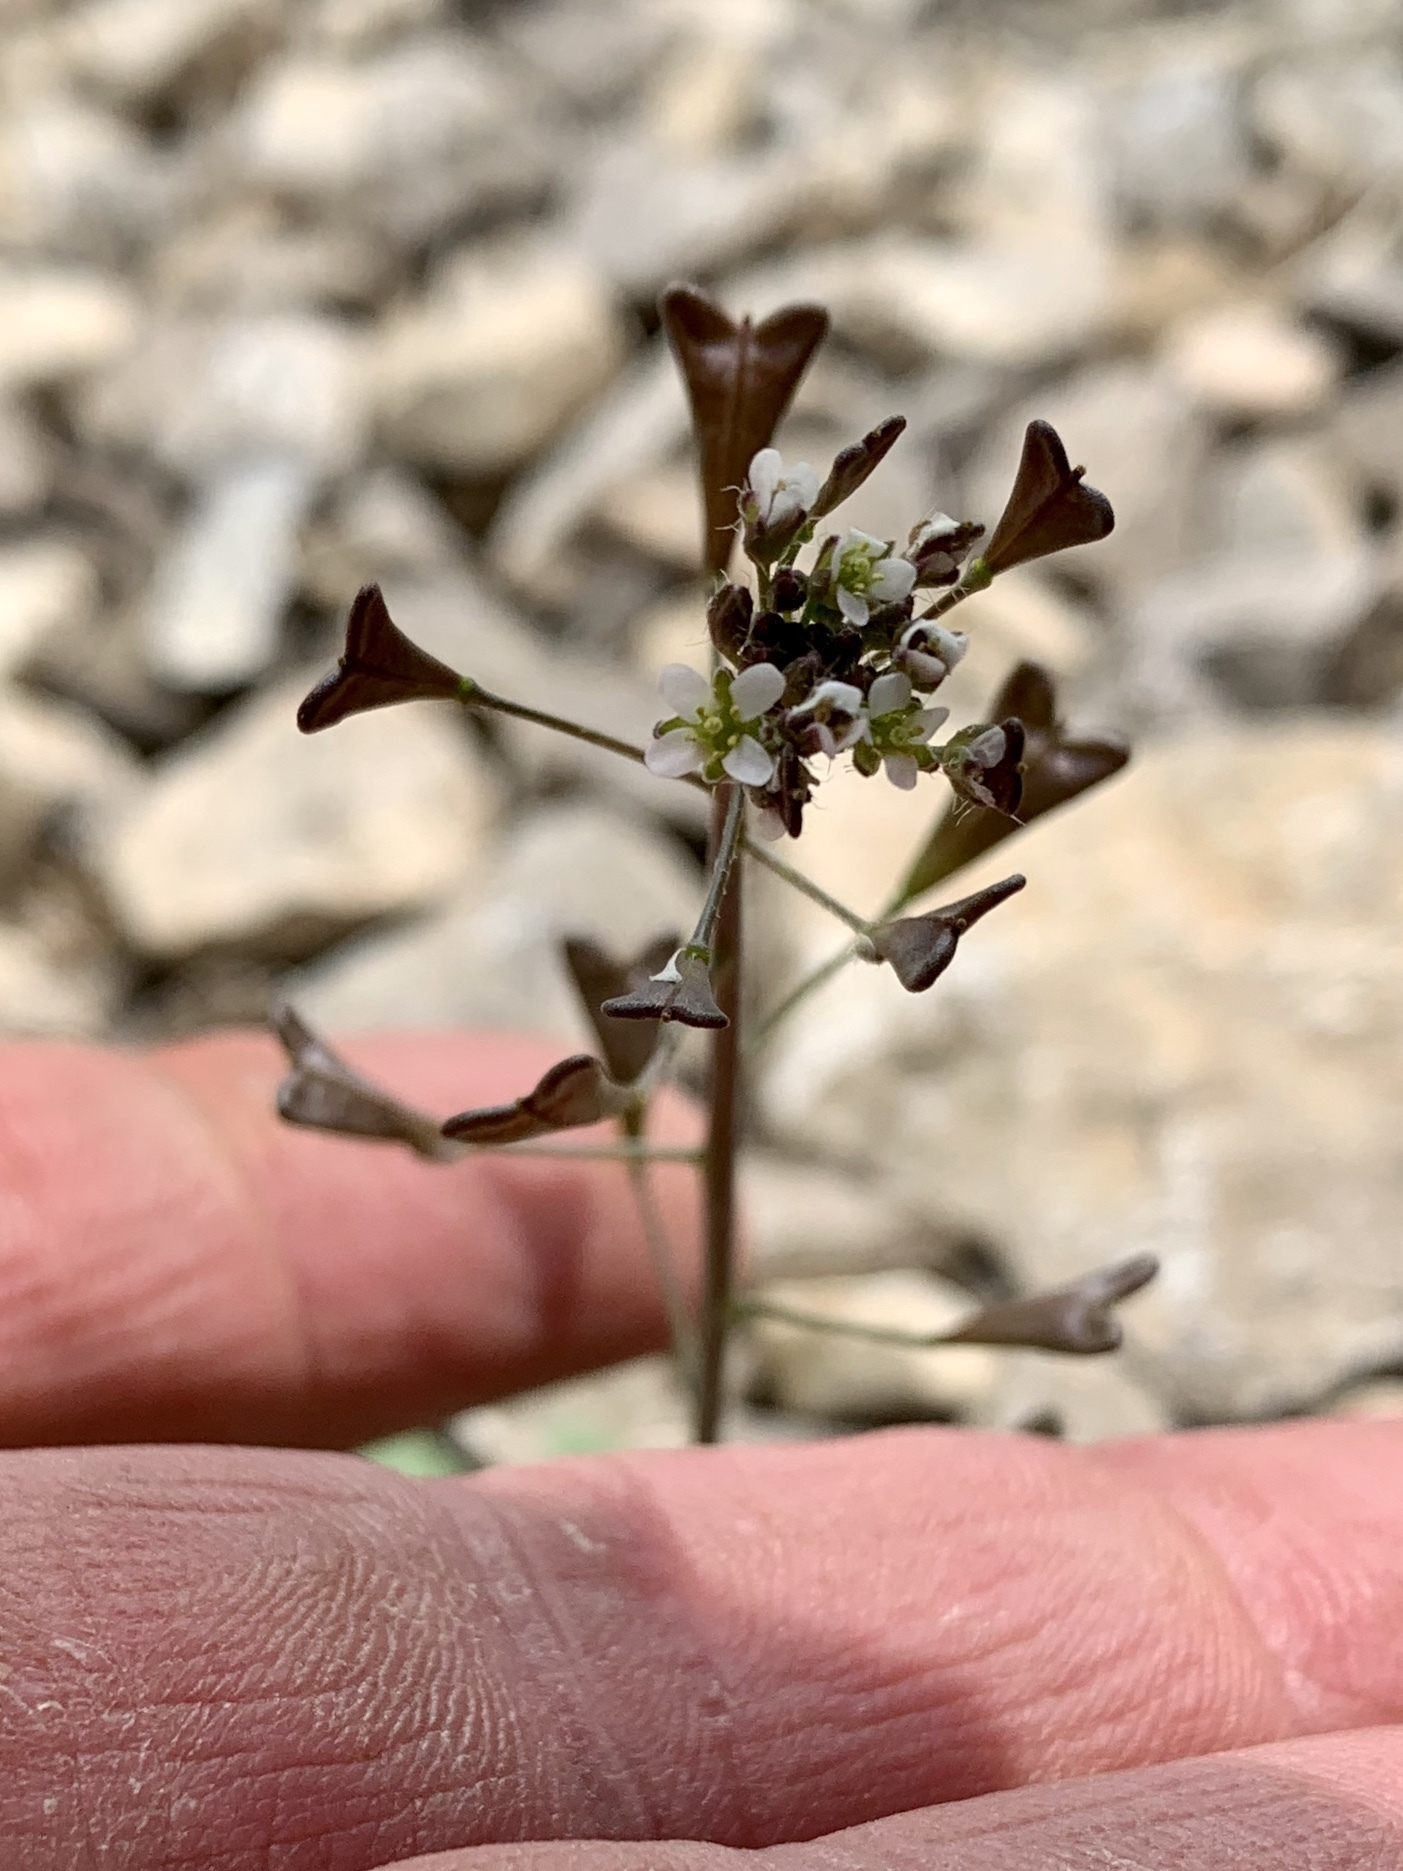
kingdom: Plantae
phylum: Tracheophyta
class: Magnoliopsida
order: Brassicales
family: Brassicaceae
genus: Capsella
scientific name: Capsella bursa-pastoris
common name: Shepherd's purse
